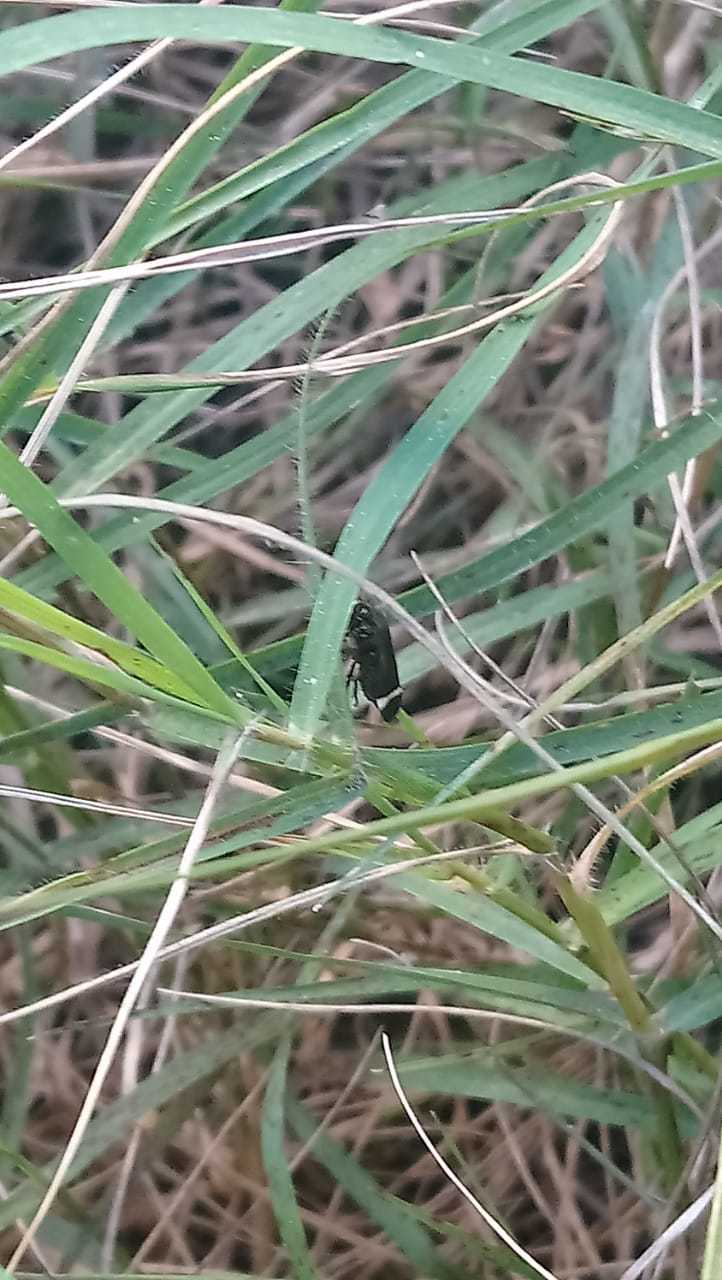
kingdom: Animalia
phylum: Arthropoda
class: Insecta
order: Hemiptera
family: Cercopidae
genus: Notozulia
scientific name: Notozulia entreriana
